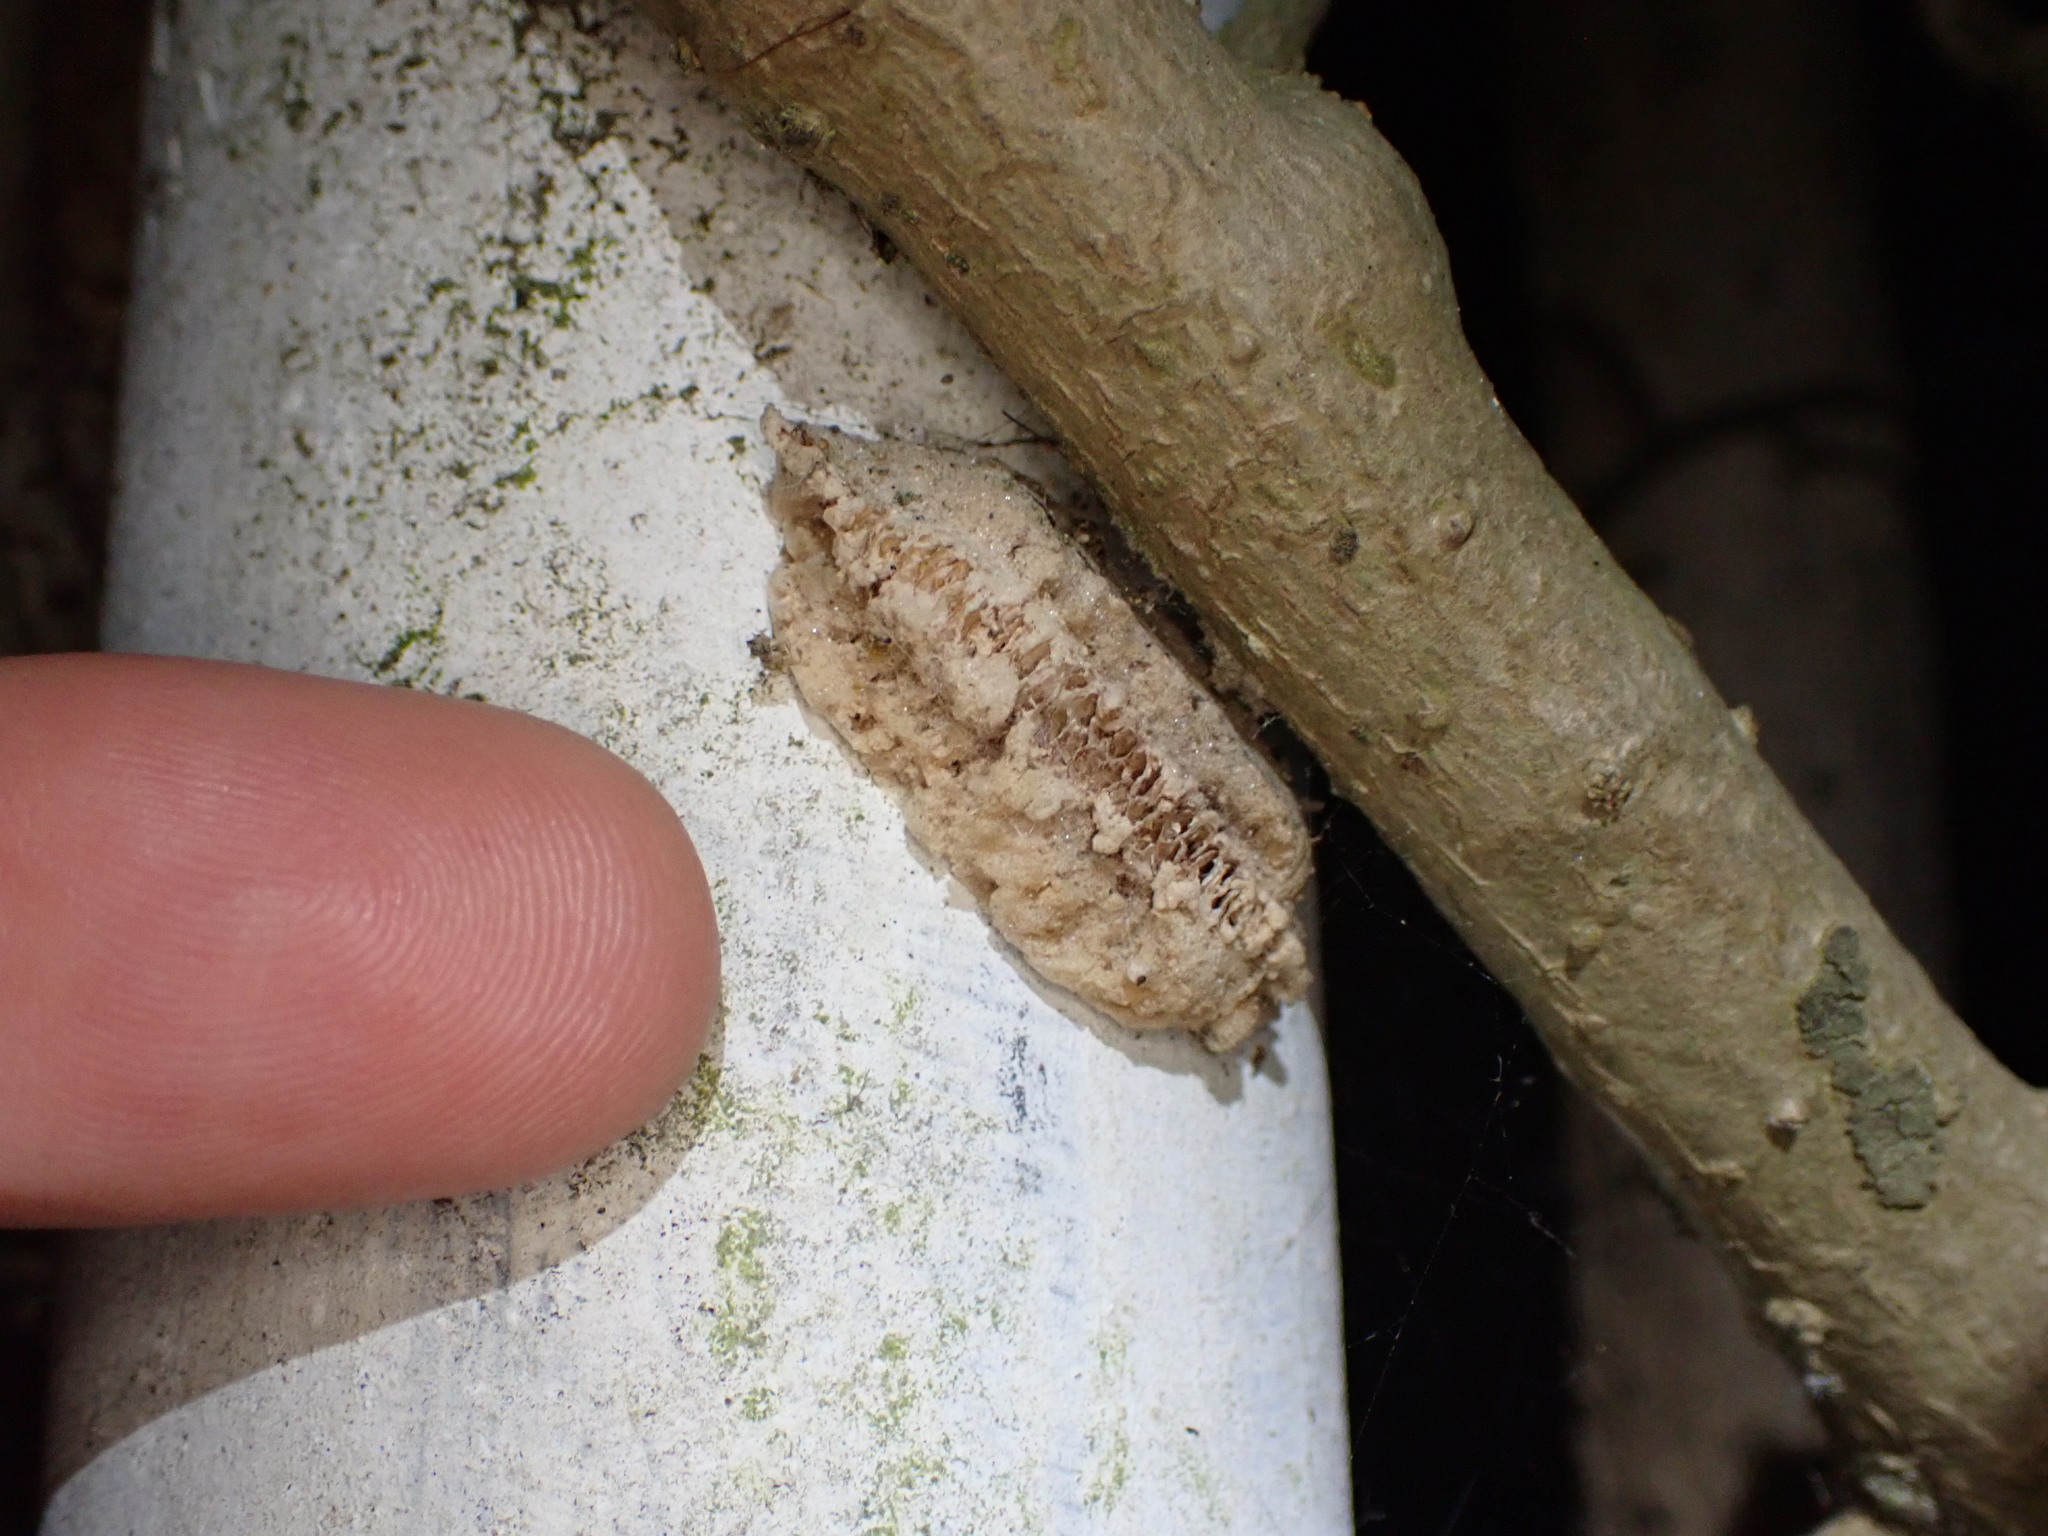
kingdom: Animalia
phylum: Arthropoda
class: Insecta
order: Mantodea
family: Miomantidae
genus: Miomantis
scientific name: Miomantis caffra
